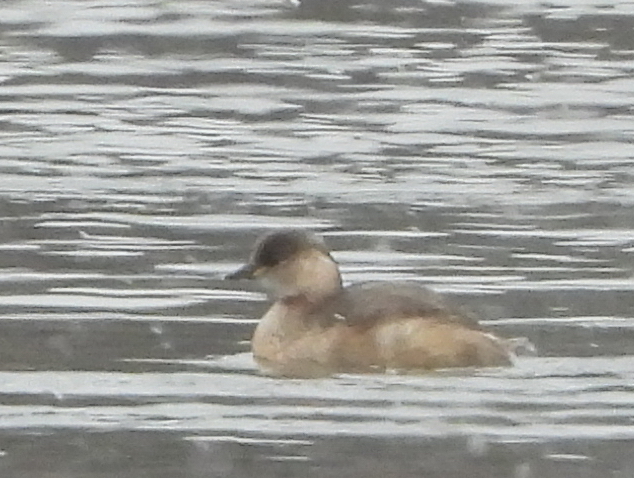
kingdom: Animalia
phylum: Chordata
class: Aves
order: Podicipediformes
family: Podicipedidae
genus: Tachybaptus
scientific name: Tachybaptus ruficollis
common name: Little grebe
